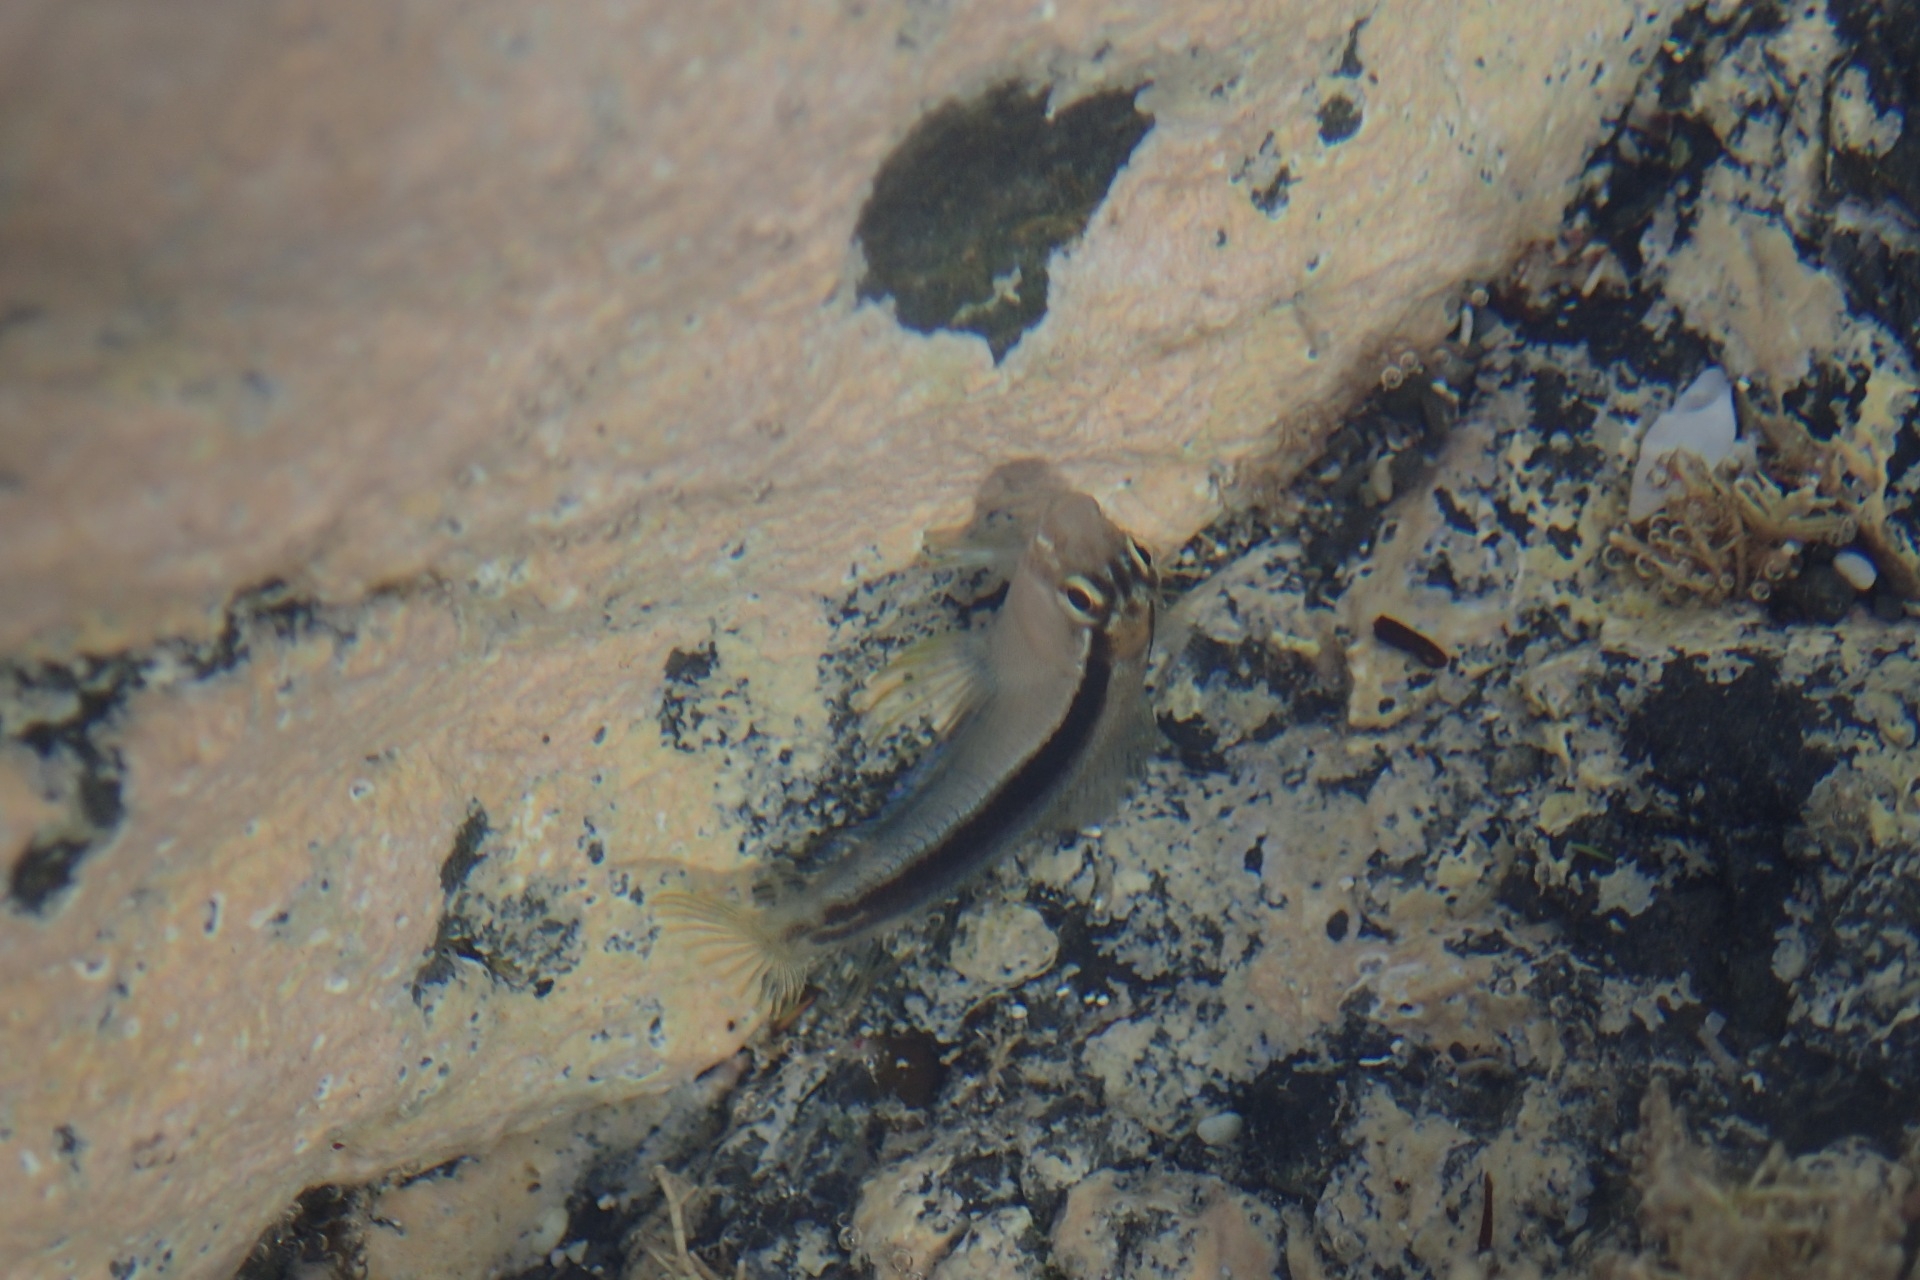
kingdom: Animalia
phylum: Chordata
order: Perciformes
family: Blenniidae
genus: Parablennius
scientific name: Parablennius laticlavius
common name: Crested blenny
